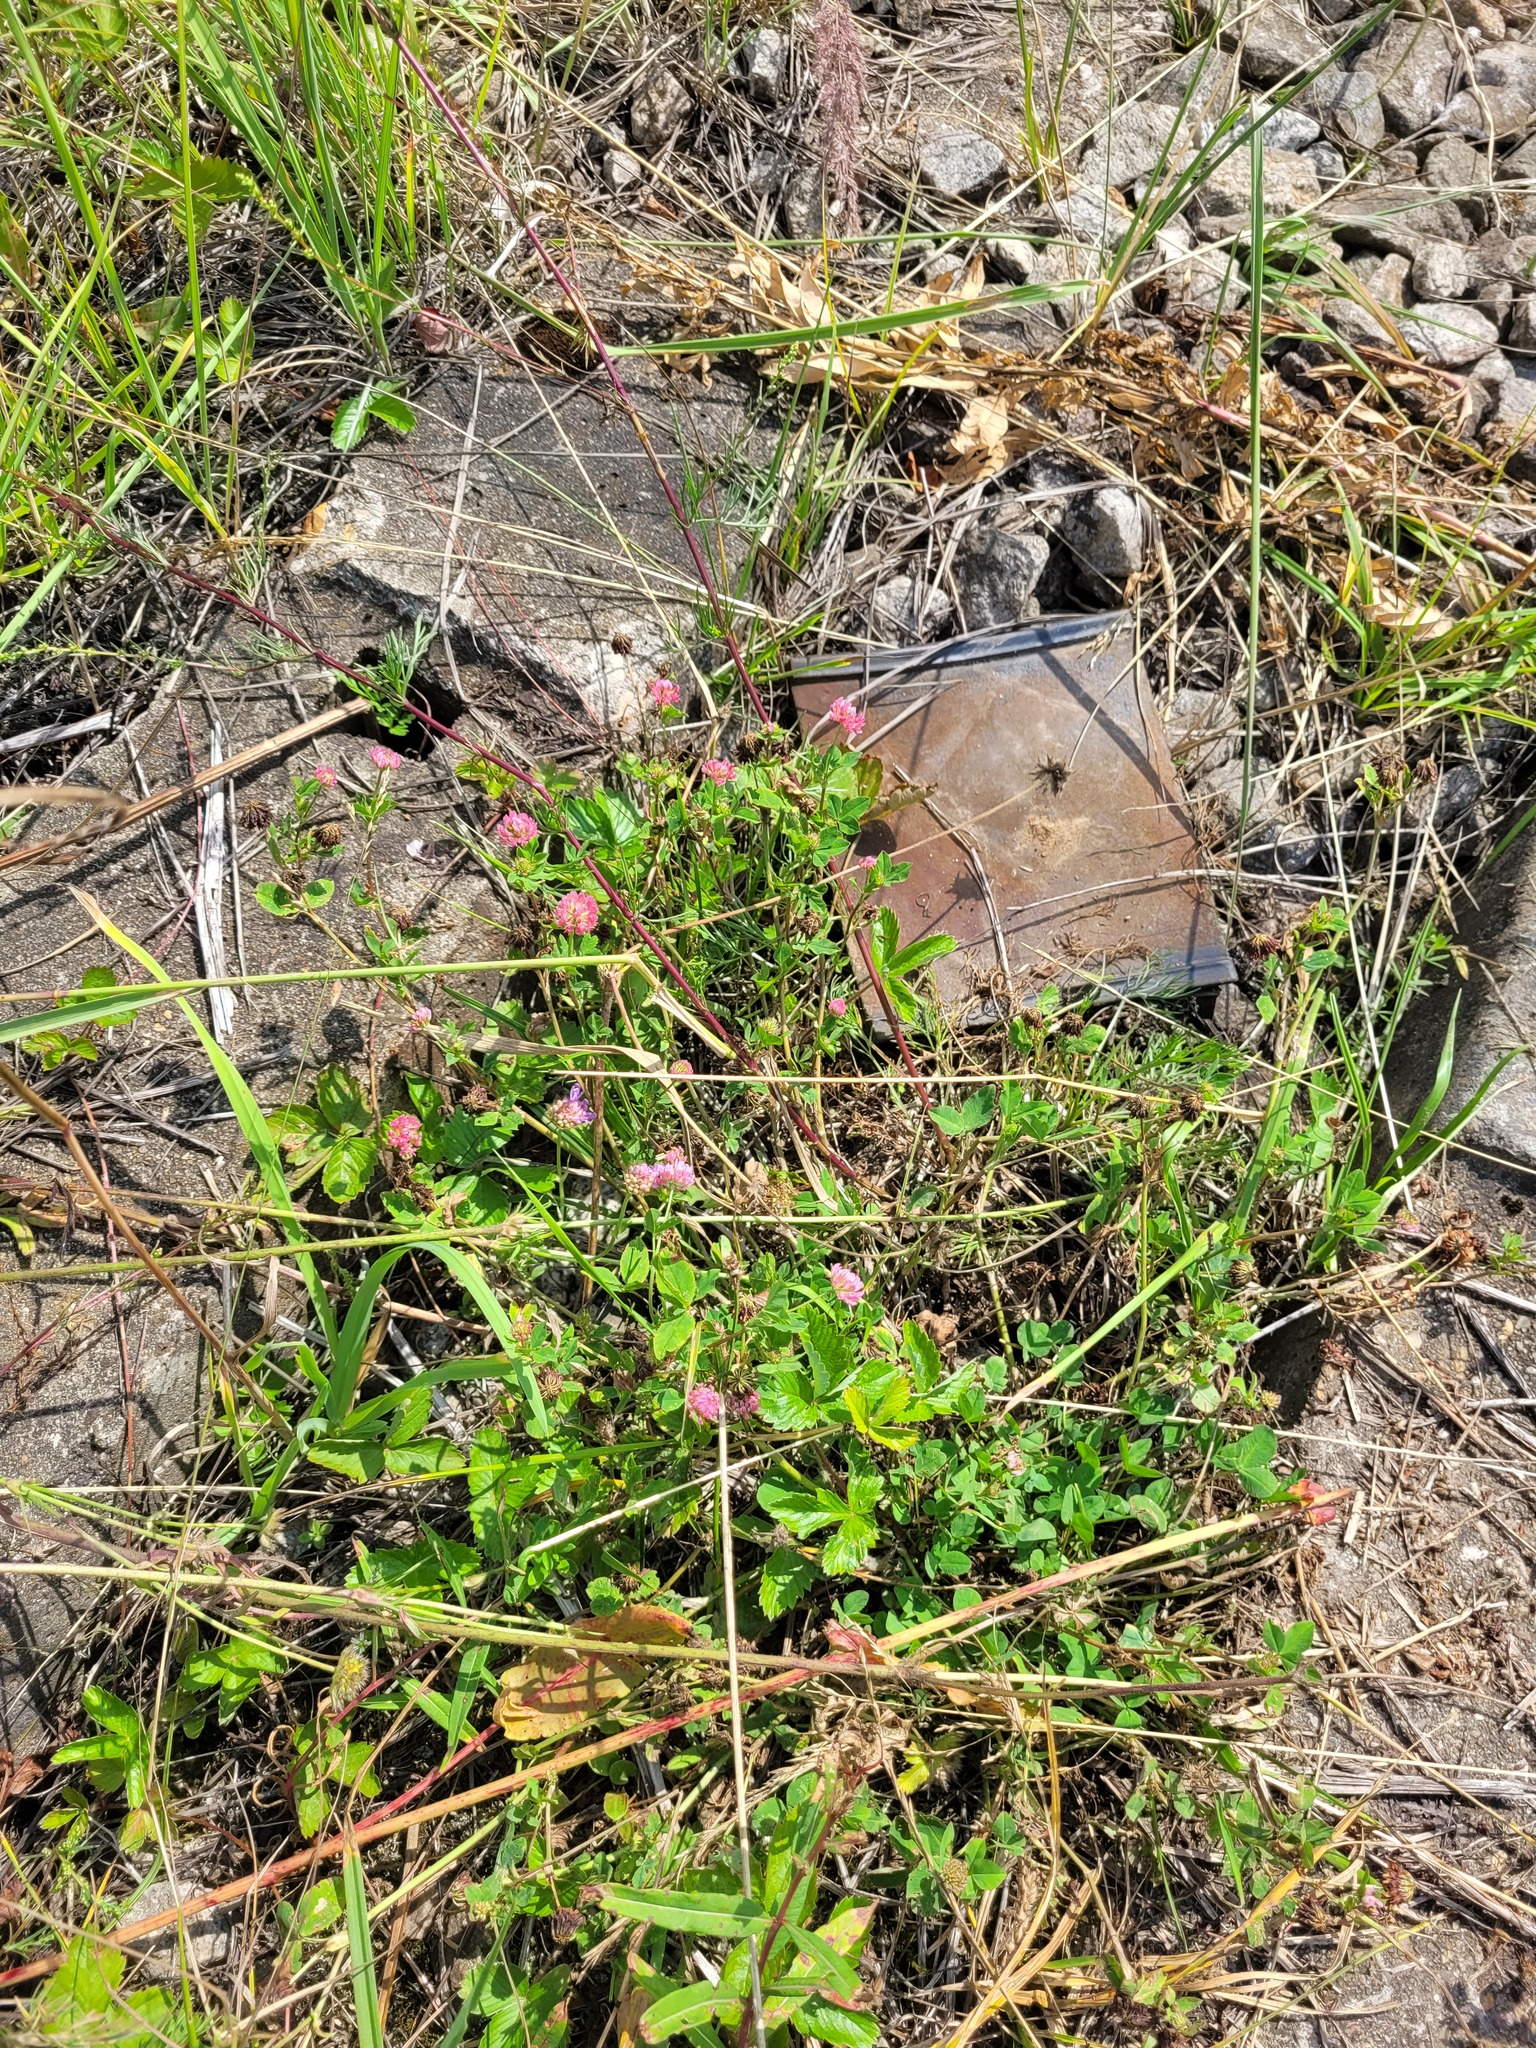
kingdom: Plantae
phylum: Tracheophyta
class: Magnoliopsida
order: Fabales
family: Fabaceae
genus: Trifolium
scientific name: Trifolium hybridum
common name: Alsike clover
